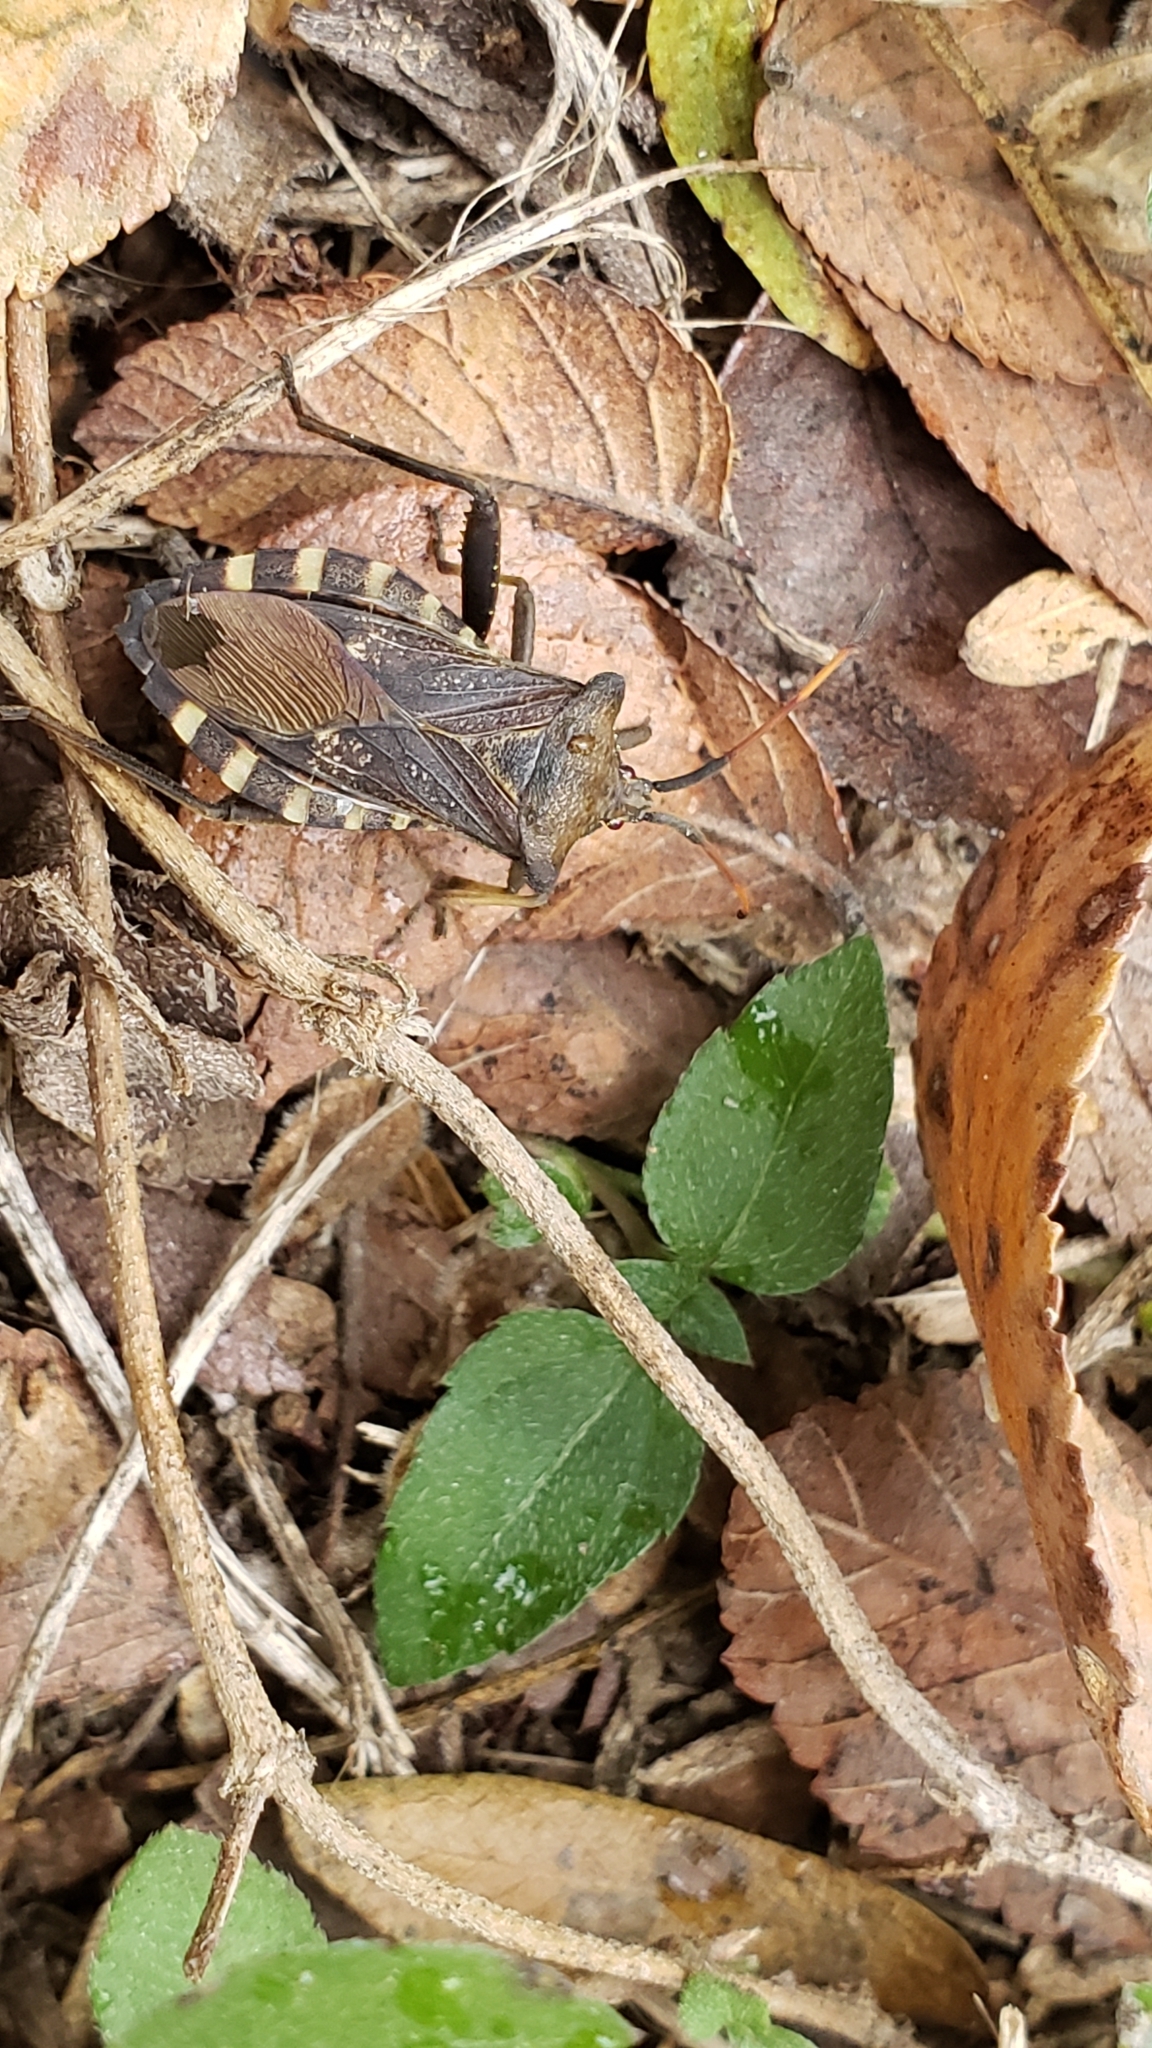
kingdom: Animalia
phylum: Arthropoda
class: Insecta
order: Hemiptera
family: Coreidae
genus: Mozena
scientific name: Mozena lunata
